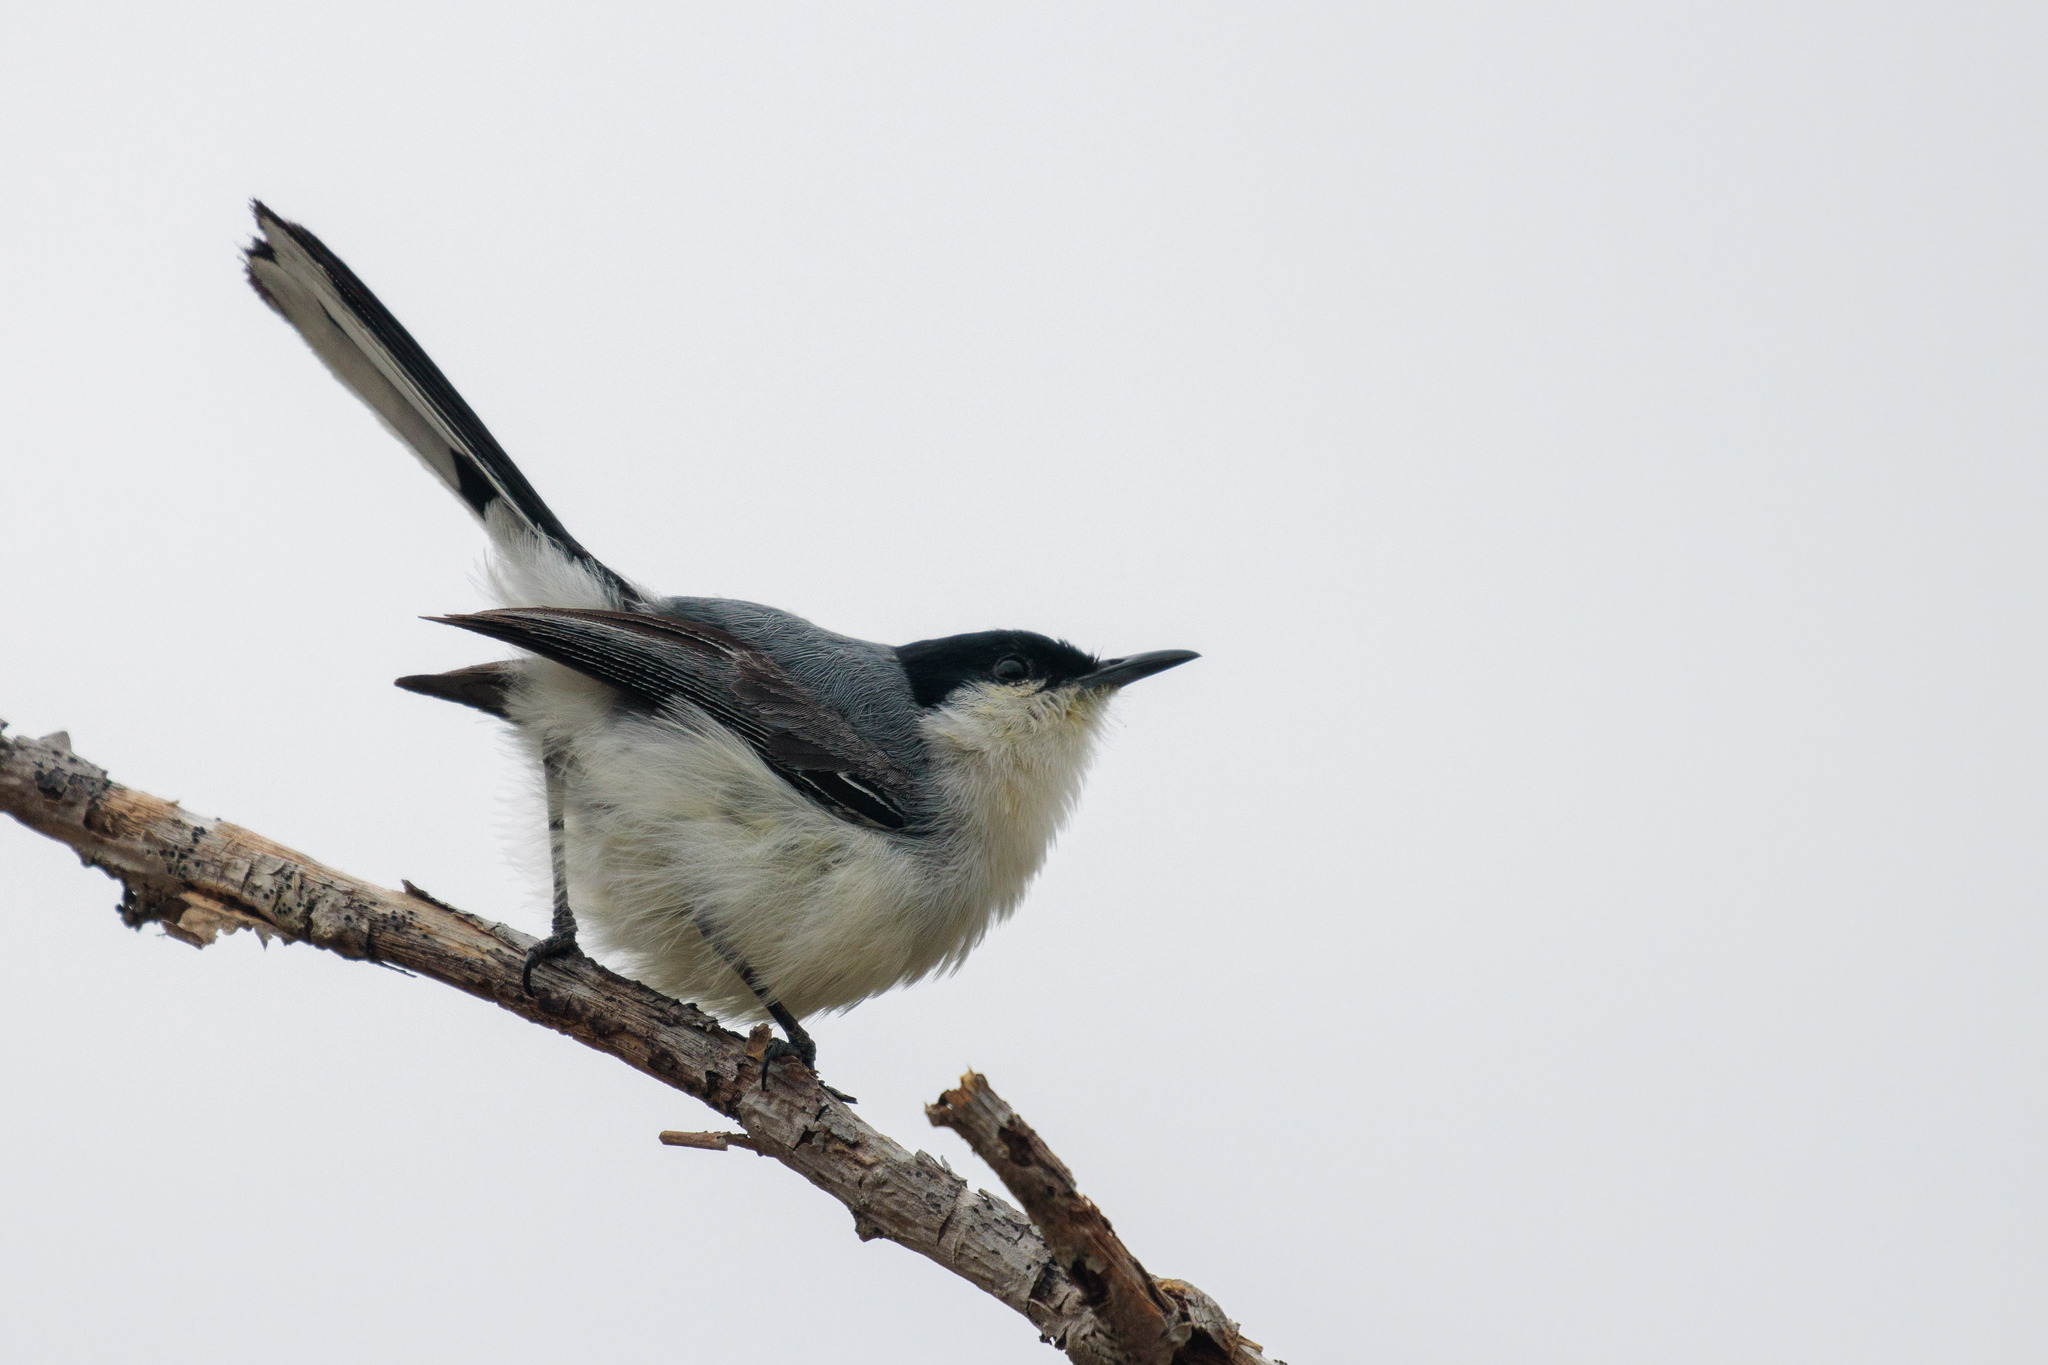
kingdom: Animalia
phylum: Chordata
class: Aves
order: Passeriformes
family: Polioptilidae
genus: Polioptila
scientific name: Polioptila plumbea
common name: Tropical gnatcatcher
